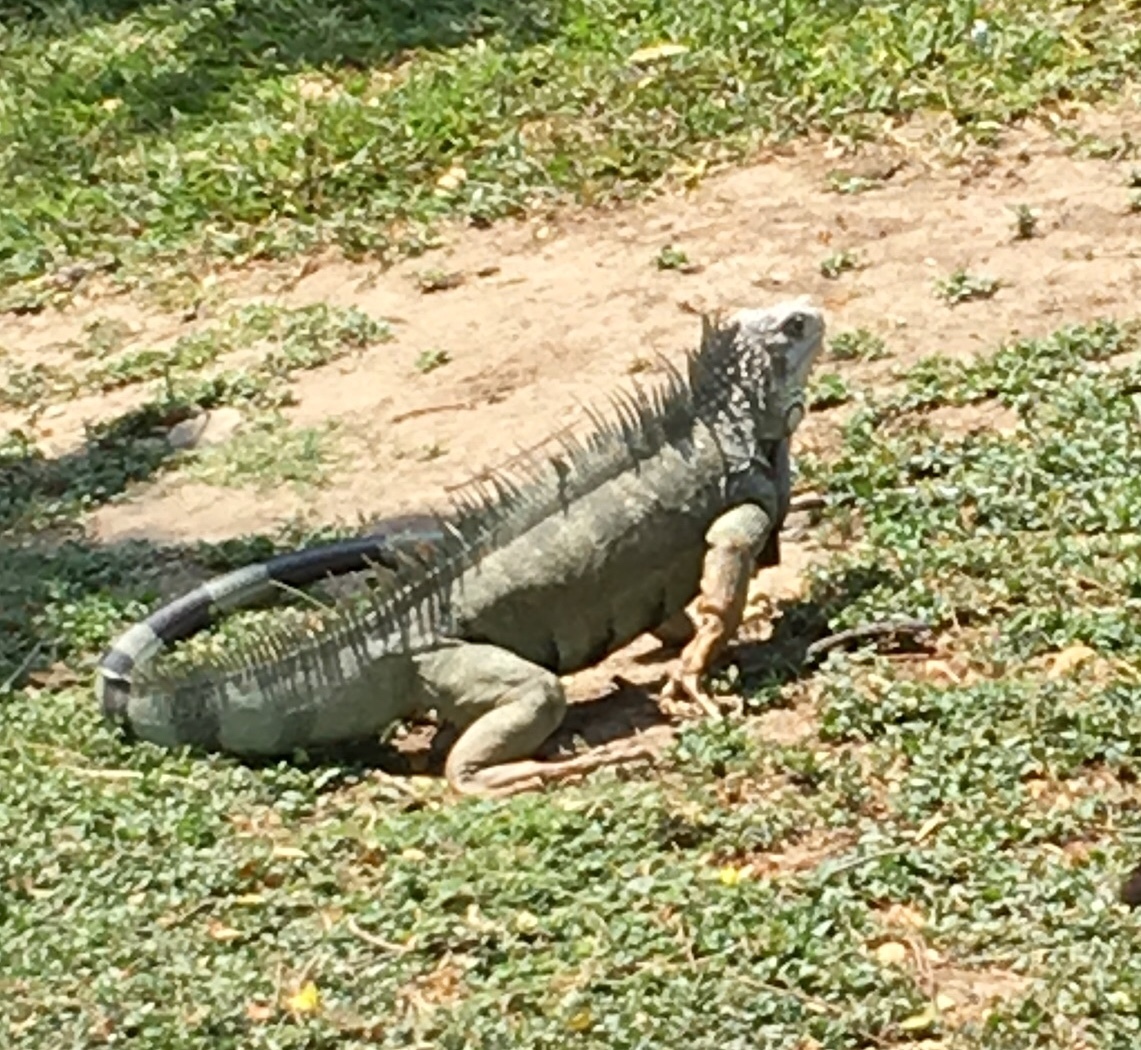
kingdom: Animalia
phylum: Chordata
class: Squamata
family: Iguanidae
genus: Iguana
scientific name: Iguana iguana
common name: Green iguana
